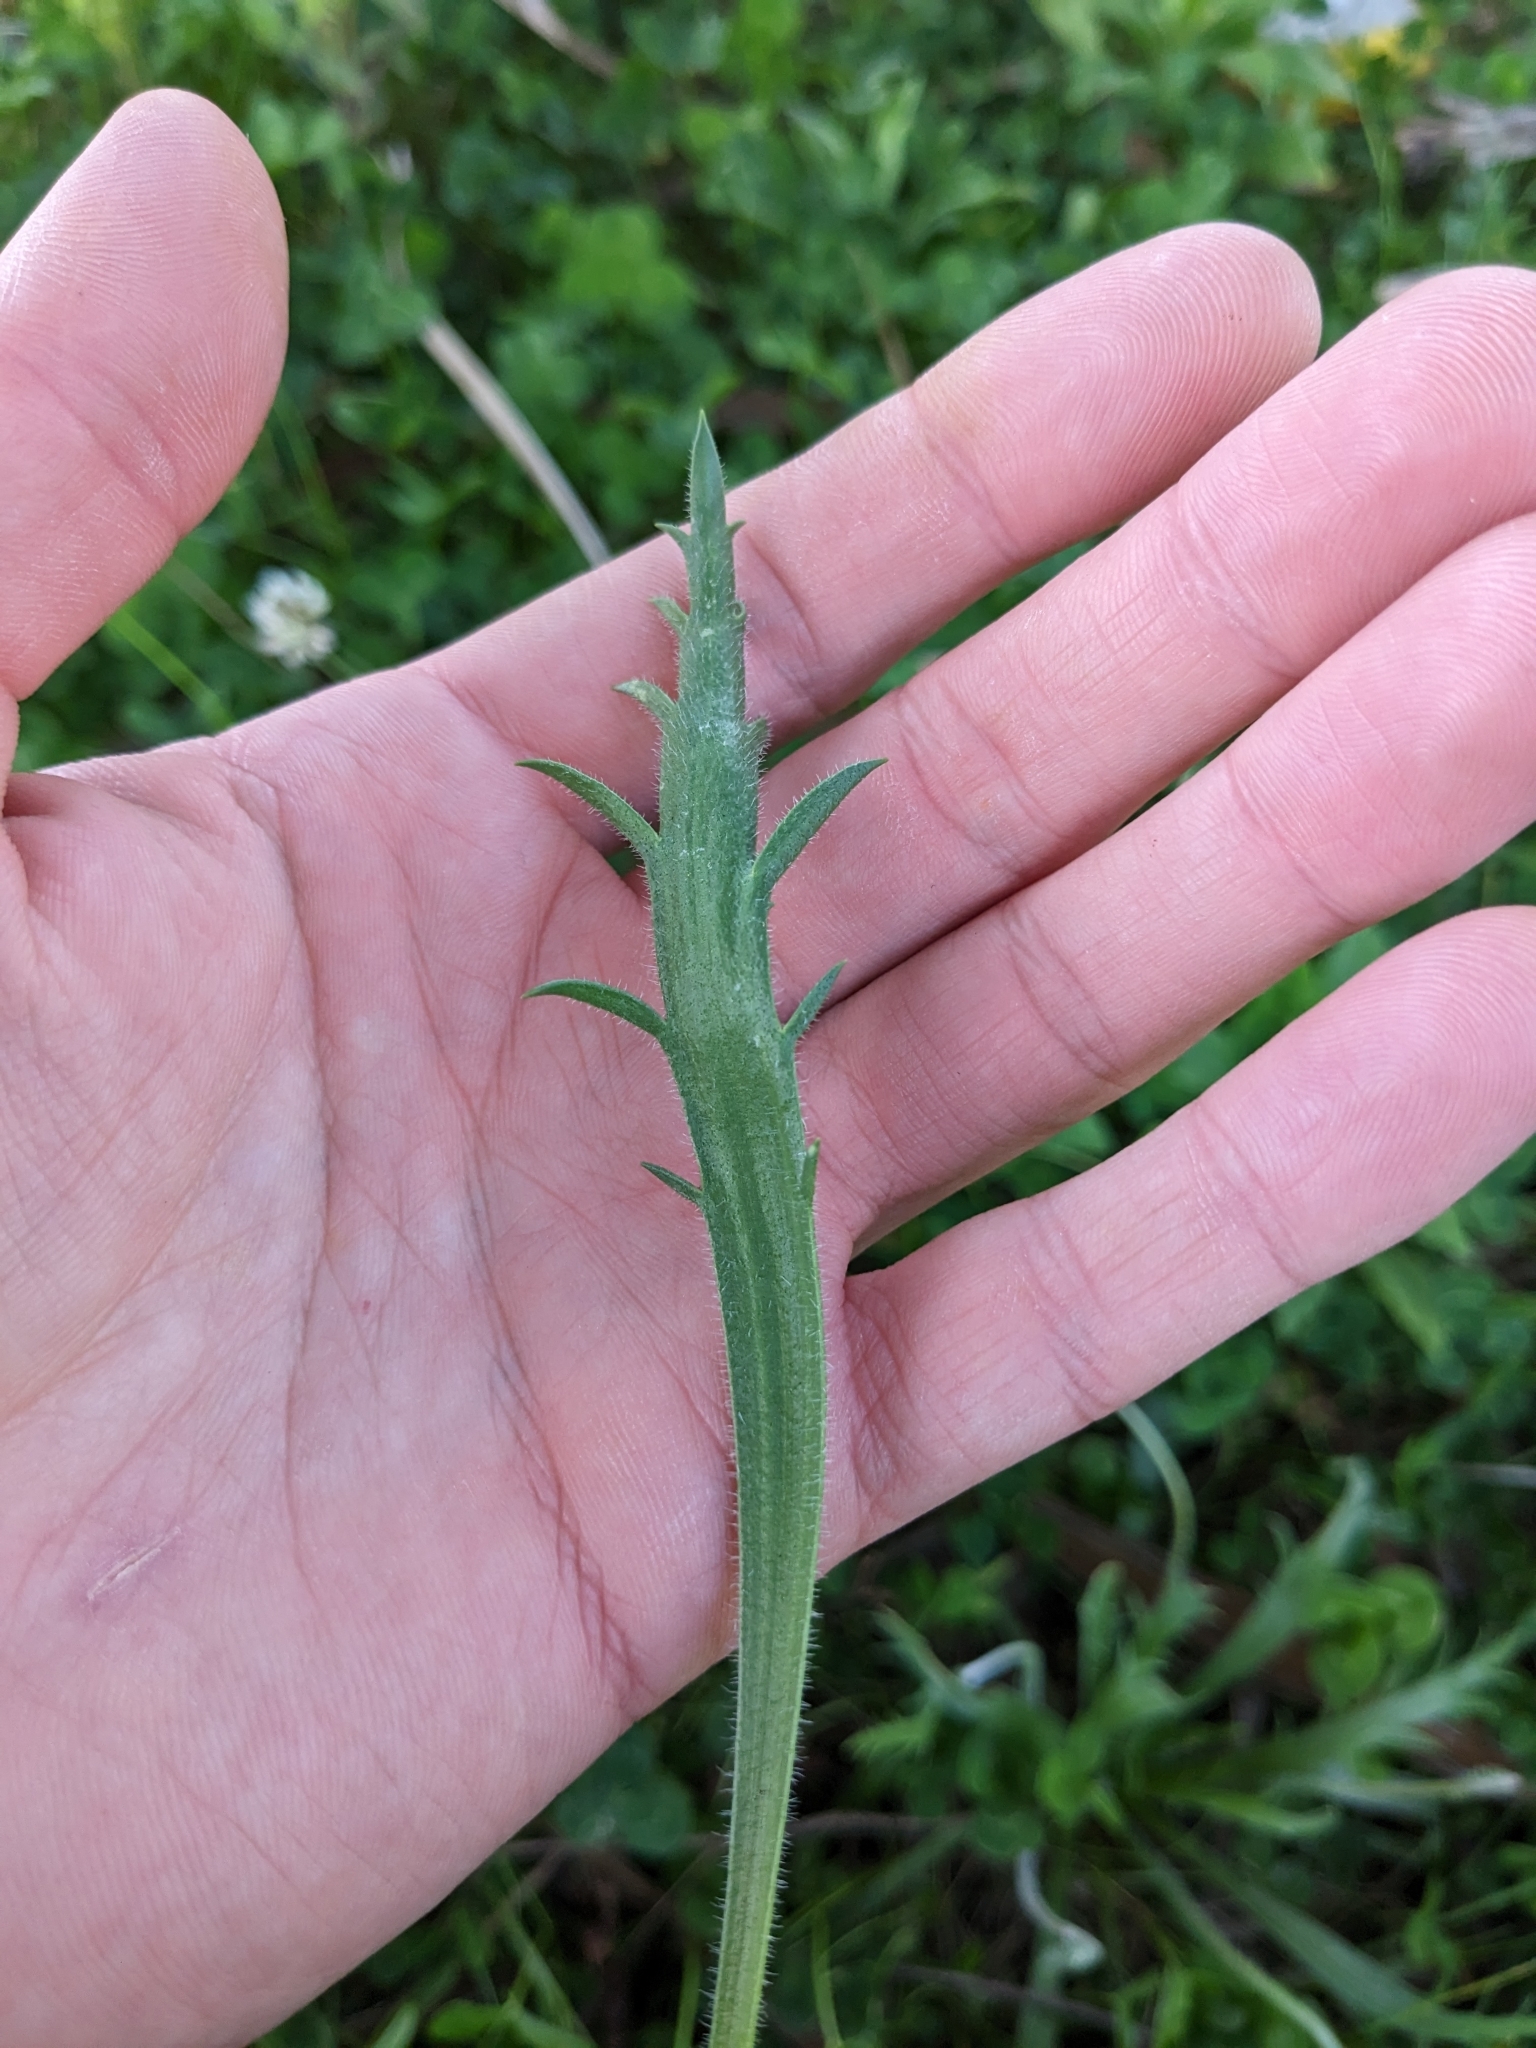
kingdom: Plantae
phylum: Tracheophyta
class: Magnoliopsida
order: Lamiales
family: Plantaginaceae
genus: Plantago
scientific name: Plantago coronopus
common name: Buck's-horn plantain
